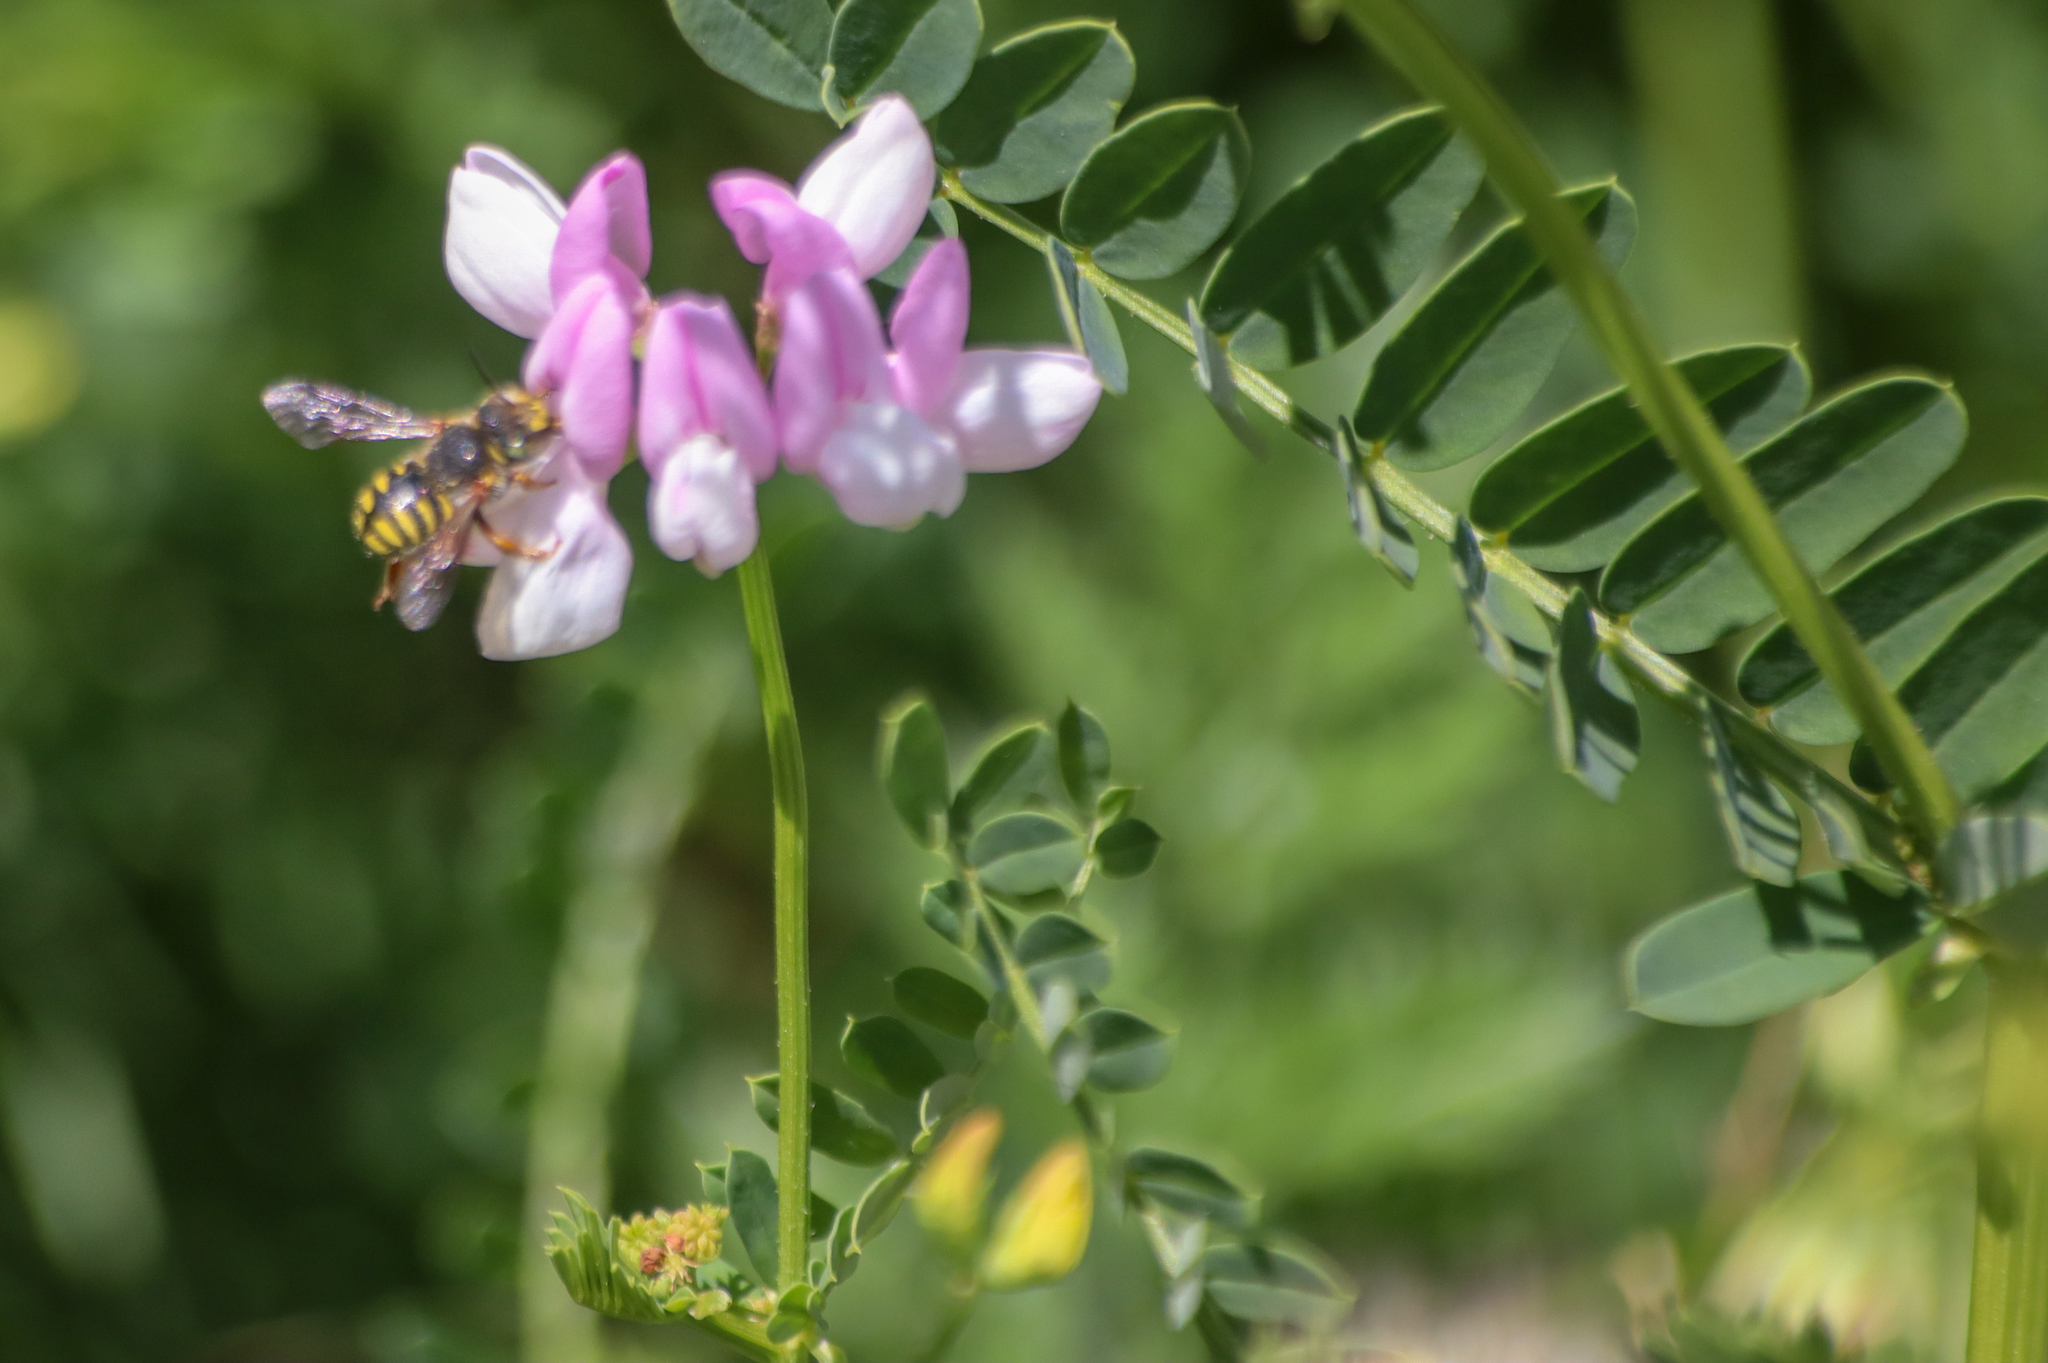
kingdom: Animalia
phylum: Arthropoda
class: Insecta
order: Hymenoptera
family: Megachilidae
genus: Anthidium
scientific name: Anthidium oblongatum
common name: Oblong wool carder bee
